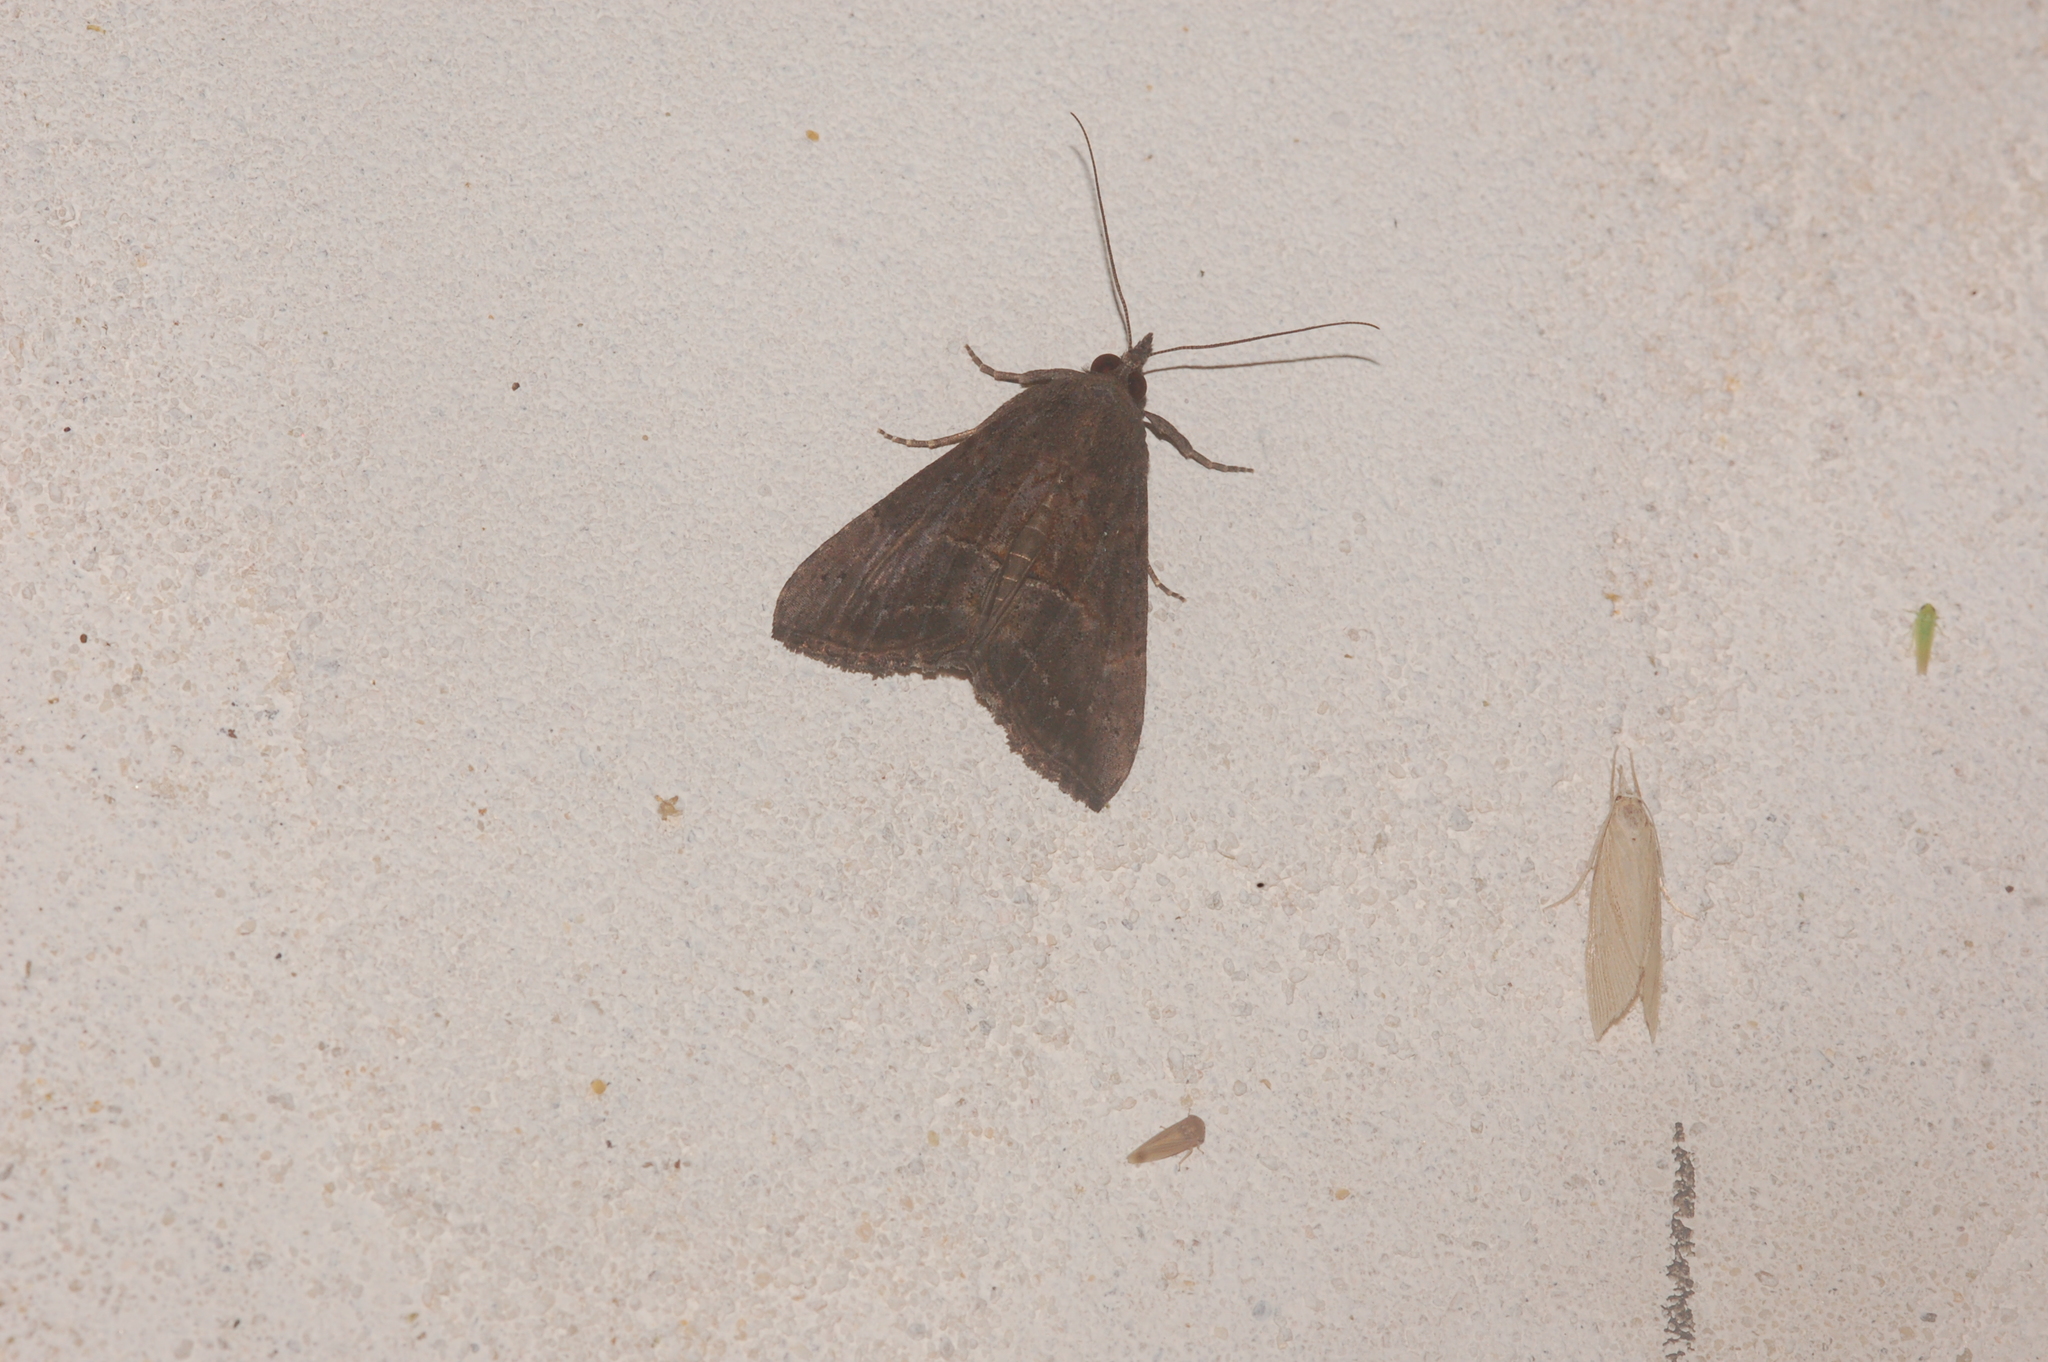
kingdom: Animalia
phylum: Arthropoda
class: Insecta
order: Lepidoptera
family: Erebidae
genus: Hypena
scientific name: Hypena scabra
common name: Green cloverworm
